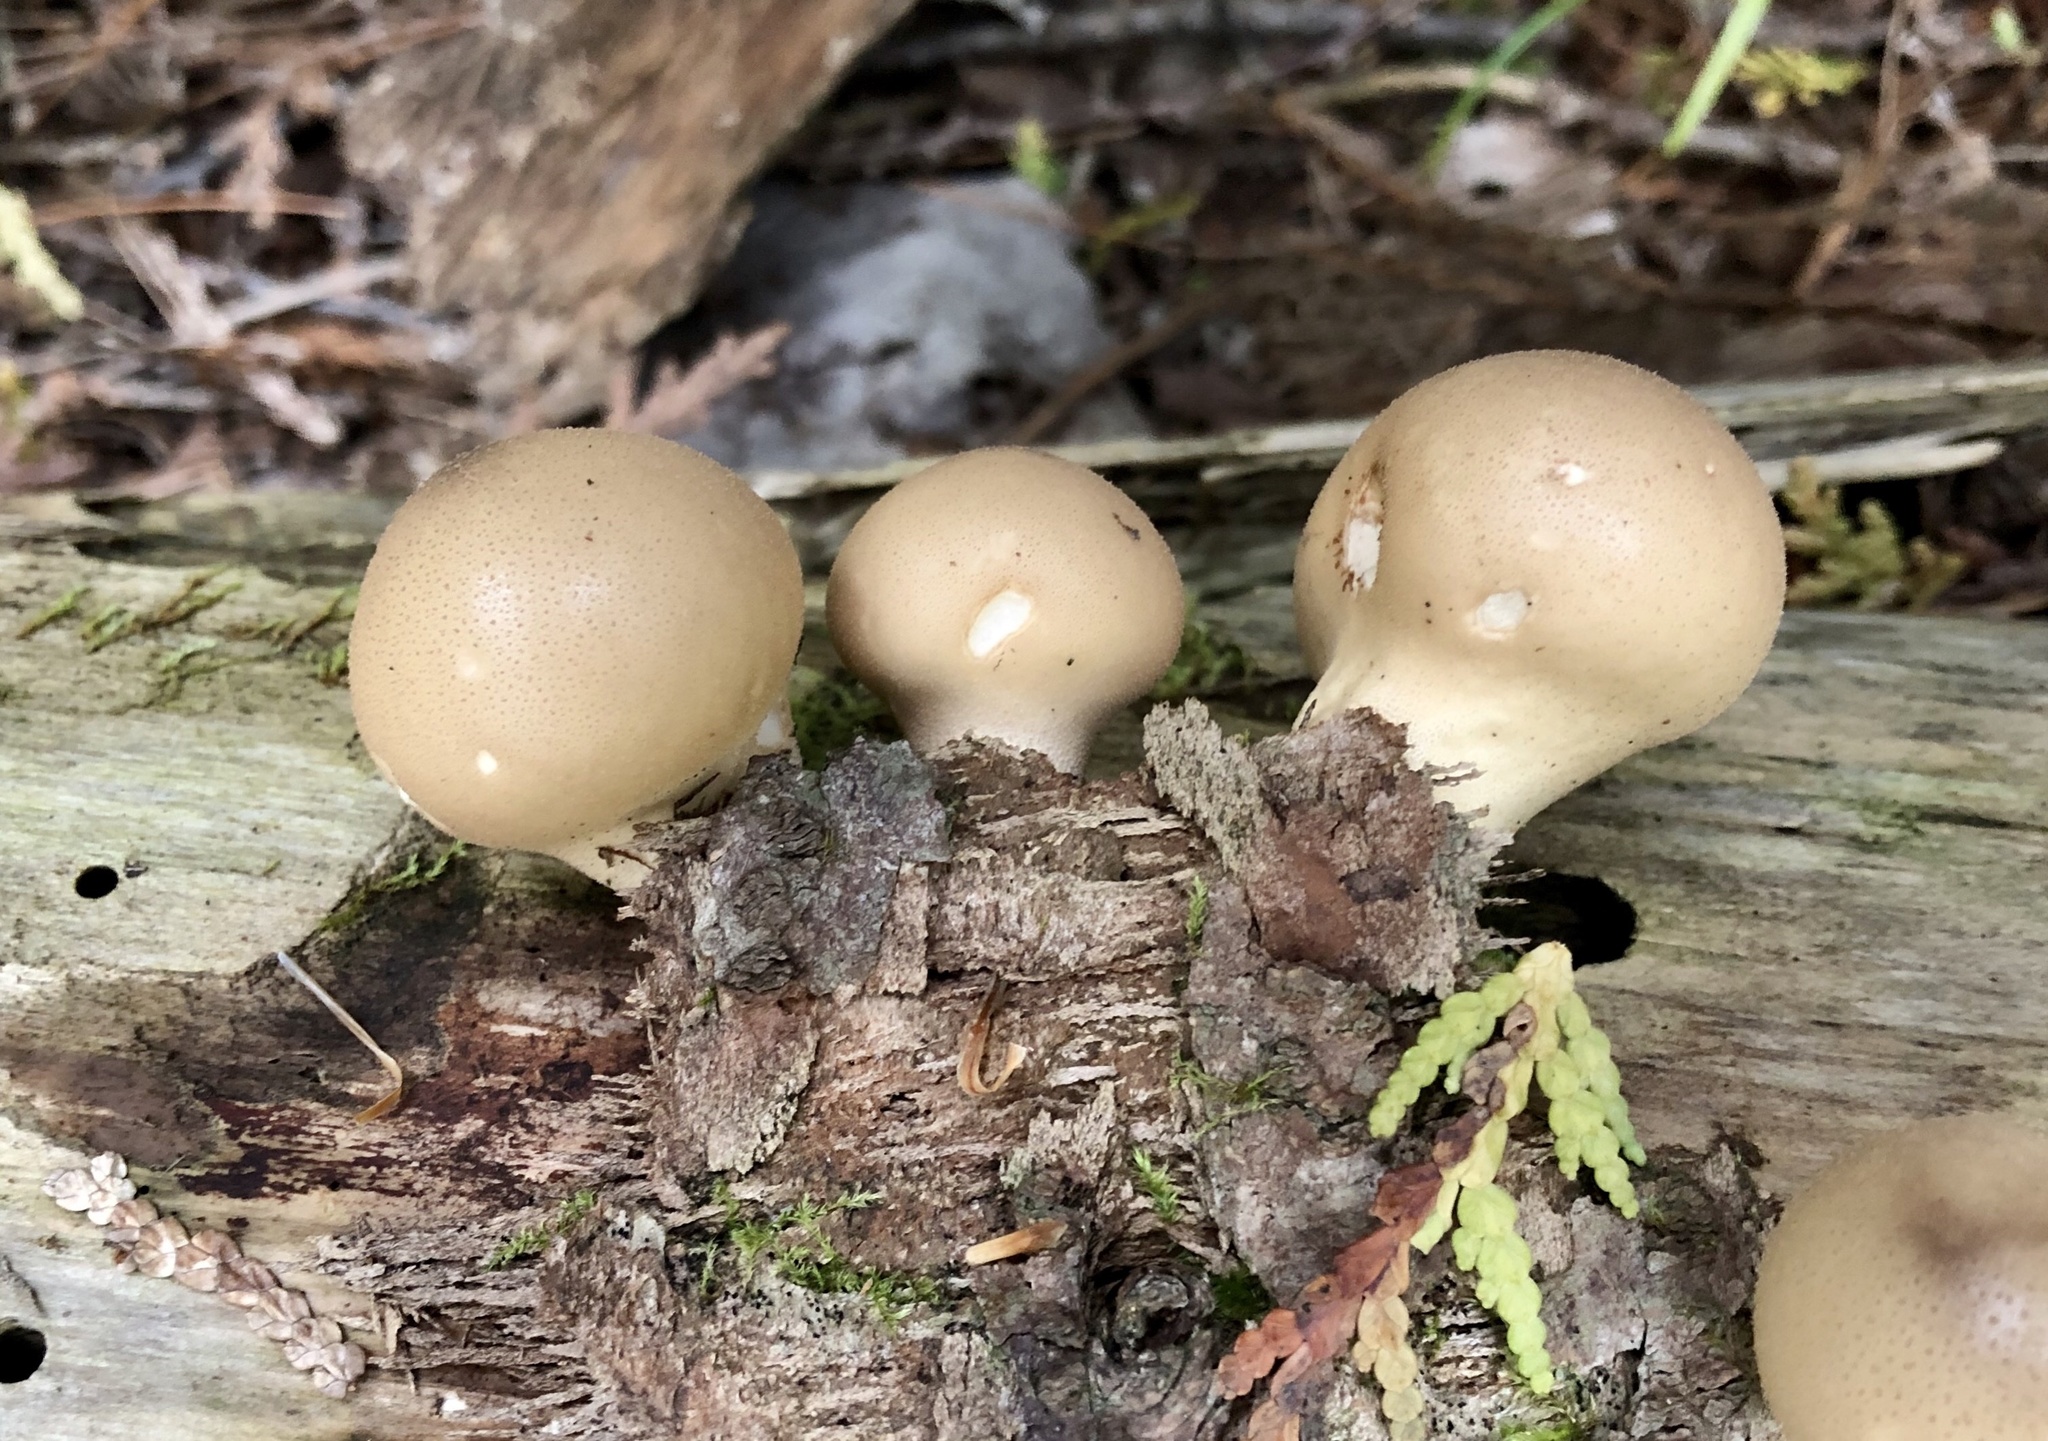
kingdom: Fungi
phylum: Basidiomycota
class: Agaricomycetes
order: Agaricales
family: Lycoperdaceae
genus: Apioperdon
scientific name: Apioperdon pyriforme
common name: Pear-shaped puffball
